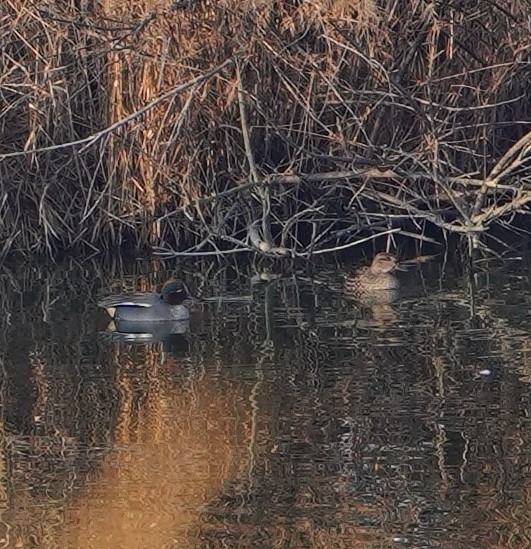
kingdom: Animalia
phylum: Chordata
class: Aves
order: Anseriformes
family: Anatidae
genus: Anas
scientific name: Anas crecca
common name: Eurasian teal
